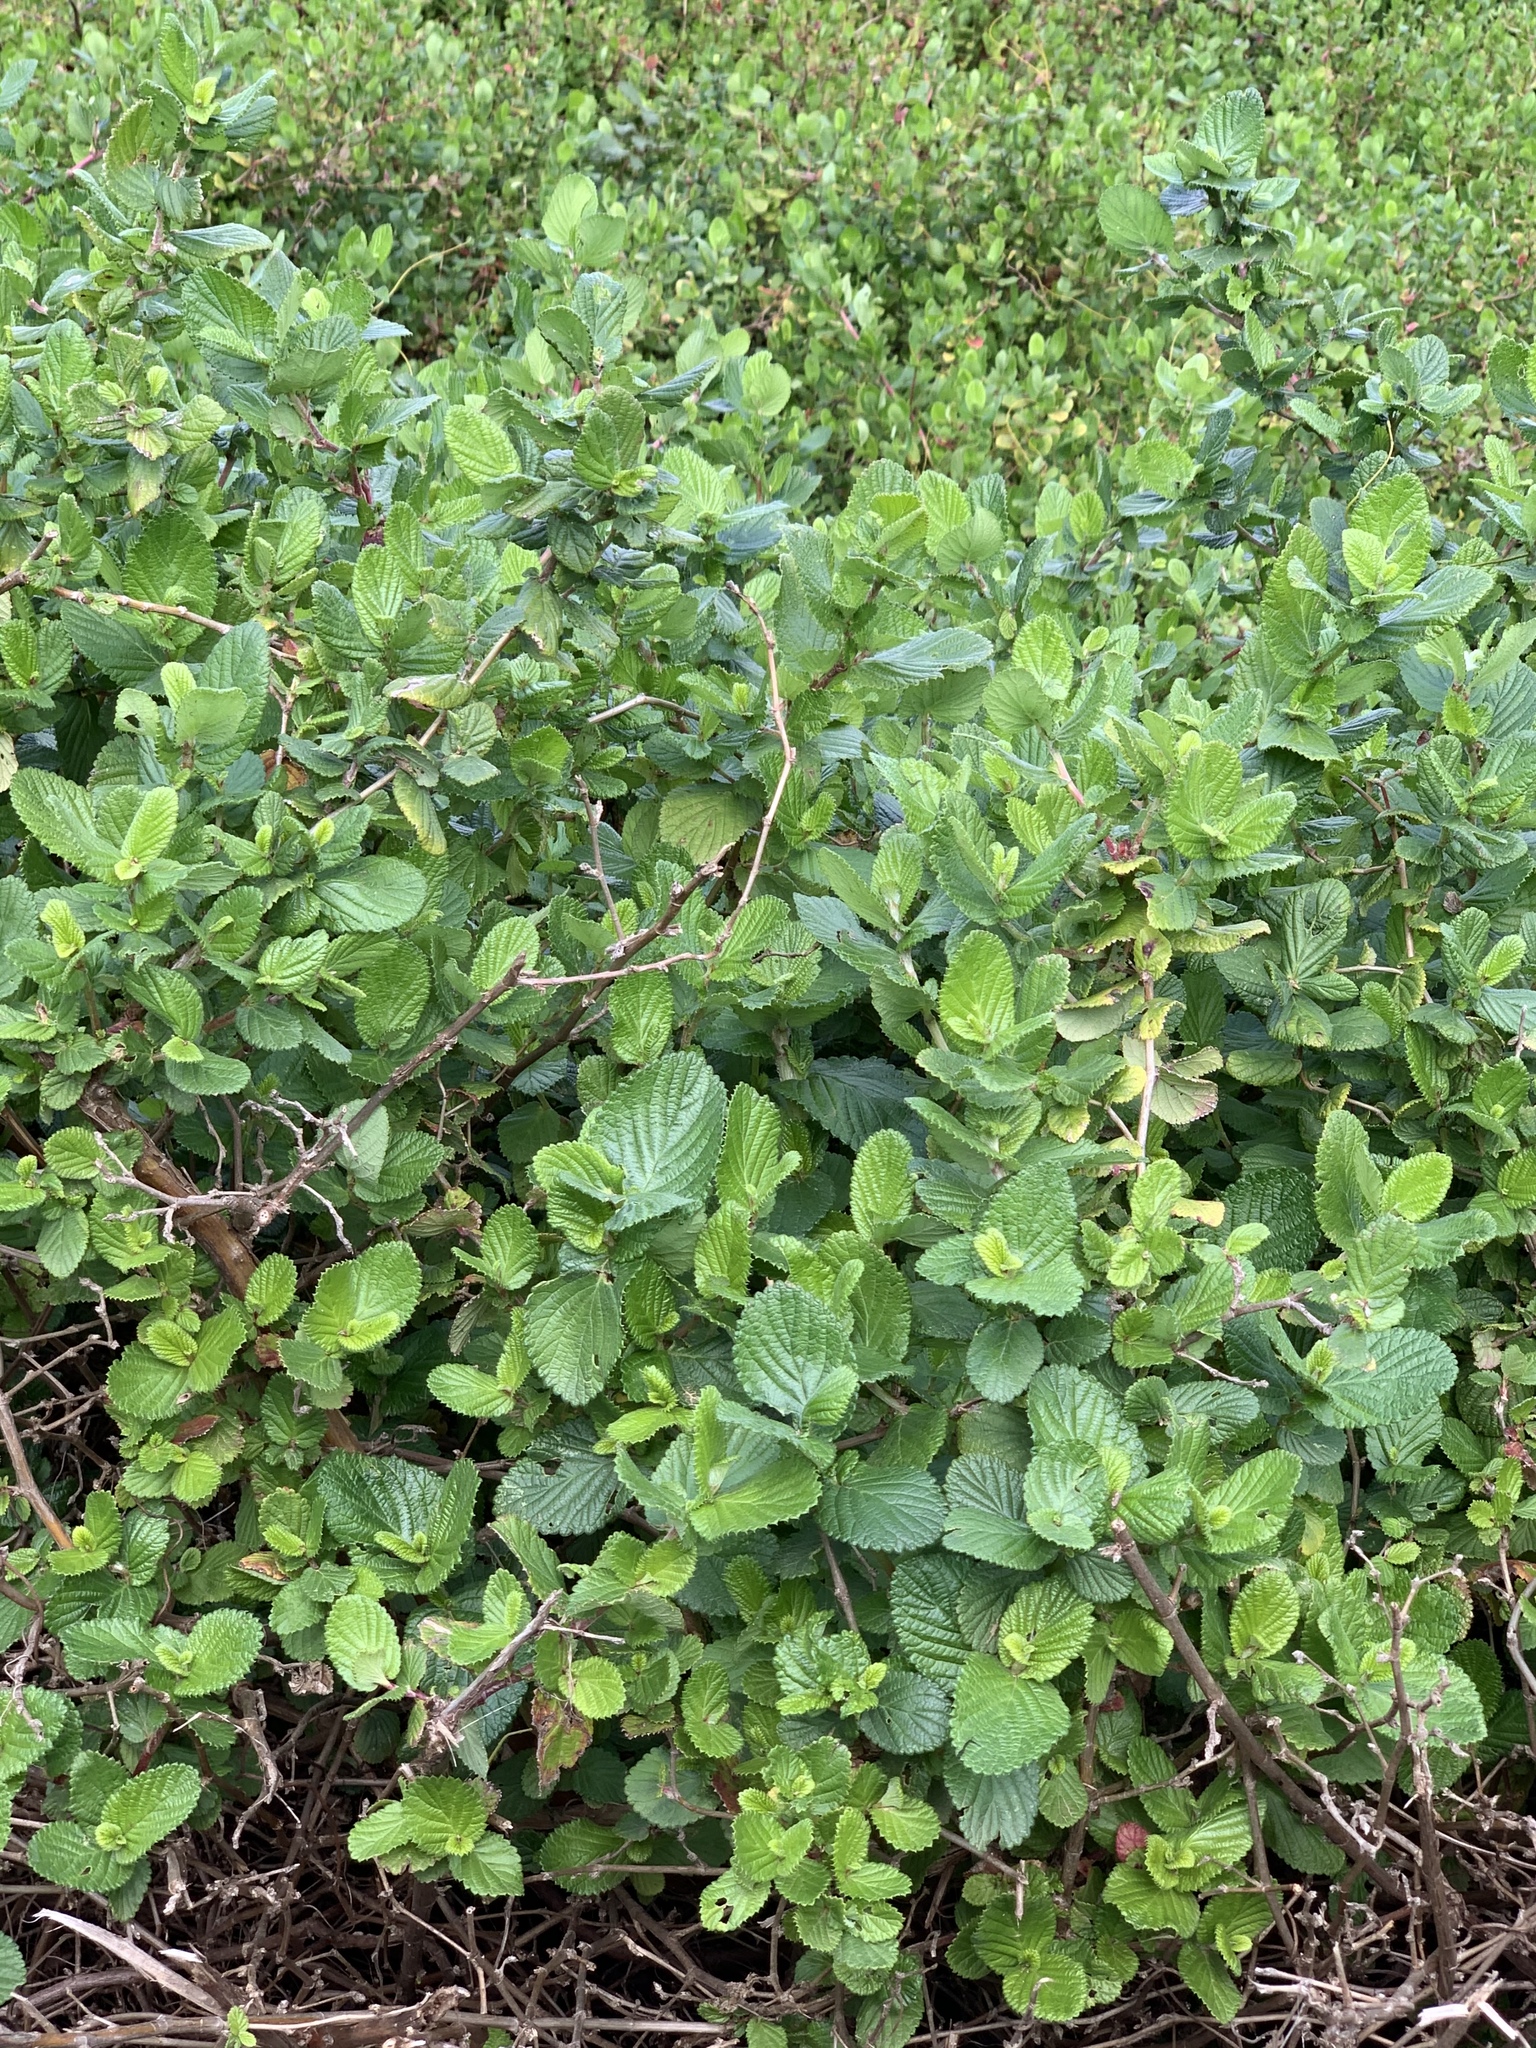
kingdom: Plantae
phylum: Tracheophyta
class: Magnoliopsida
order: Rosales
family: Rosaceae
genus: Cliffortia
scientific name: Cliffortia odorata
